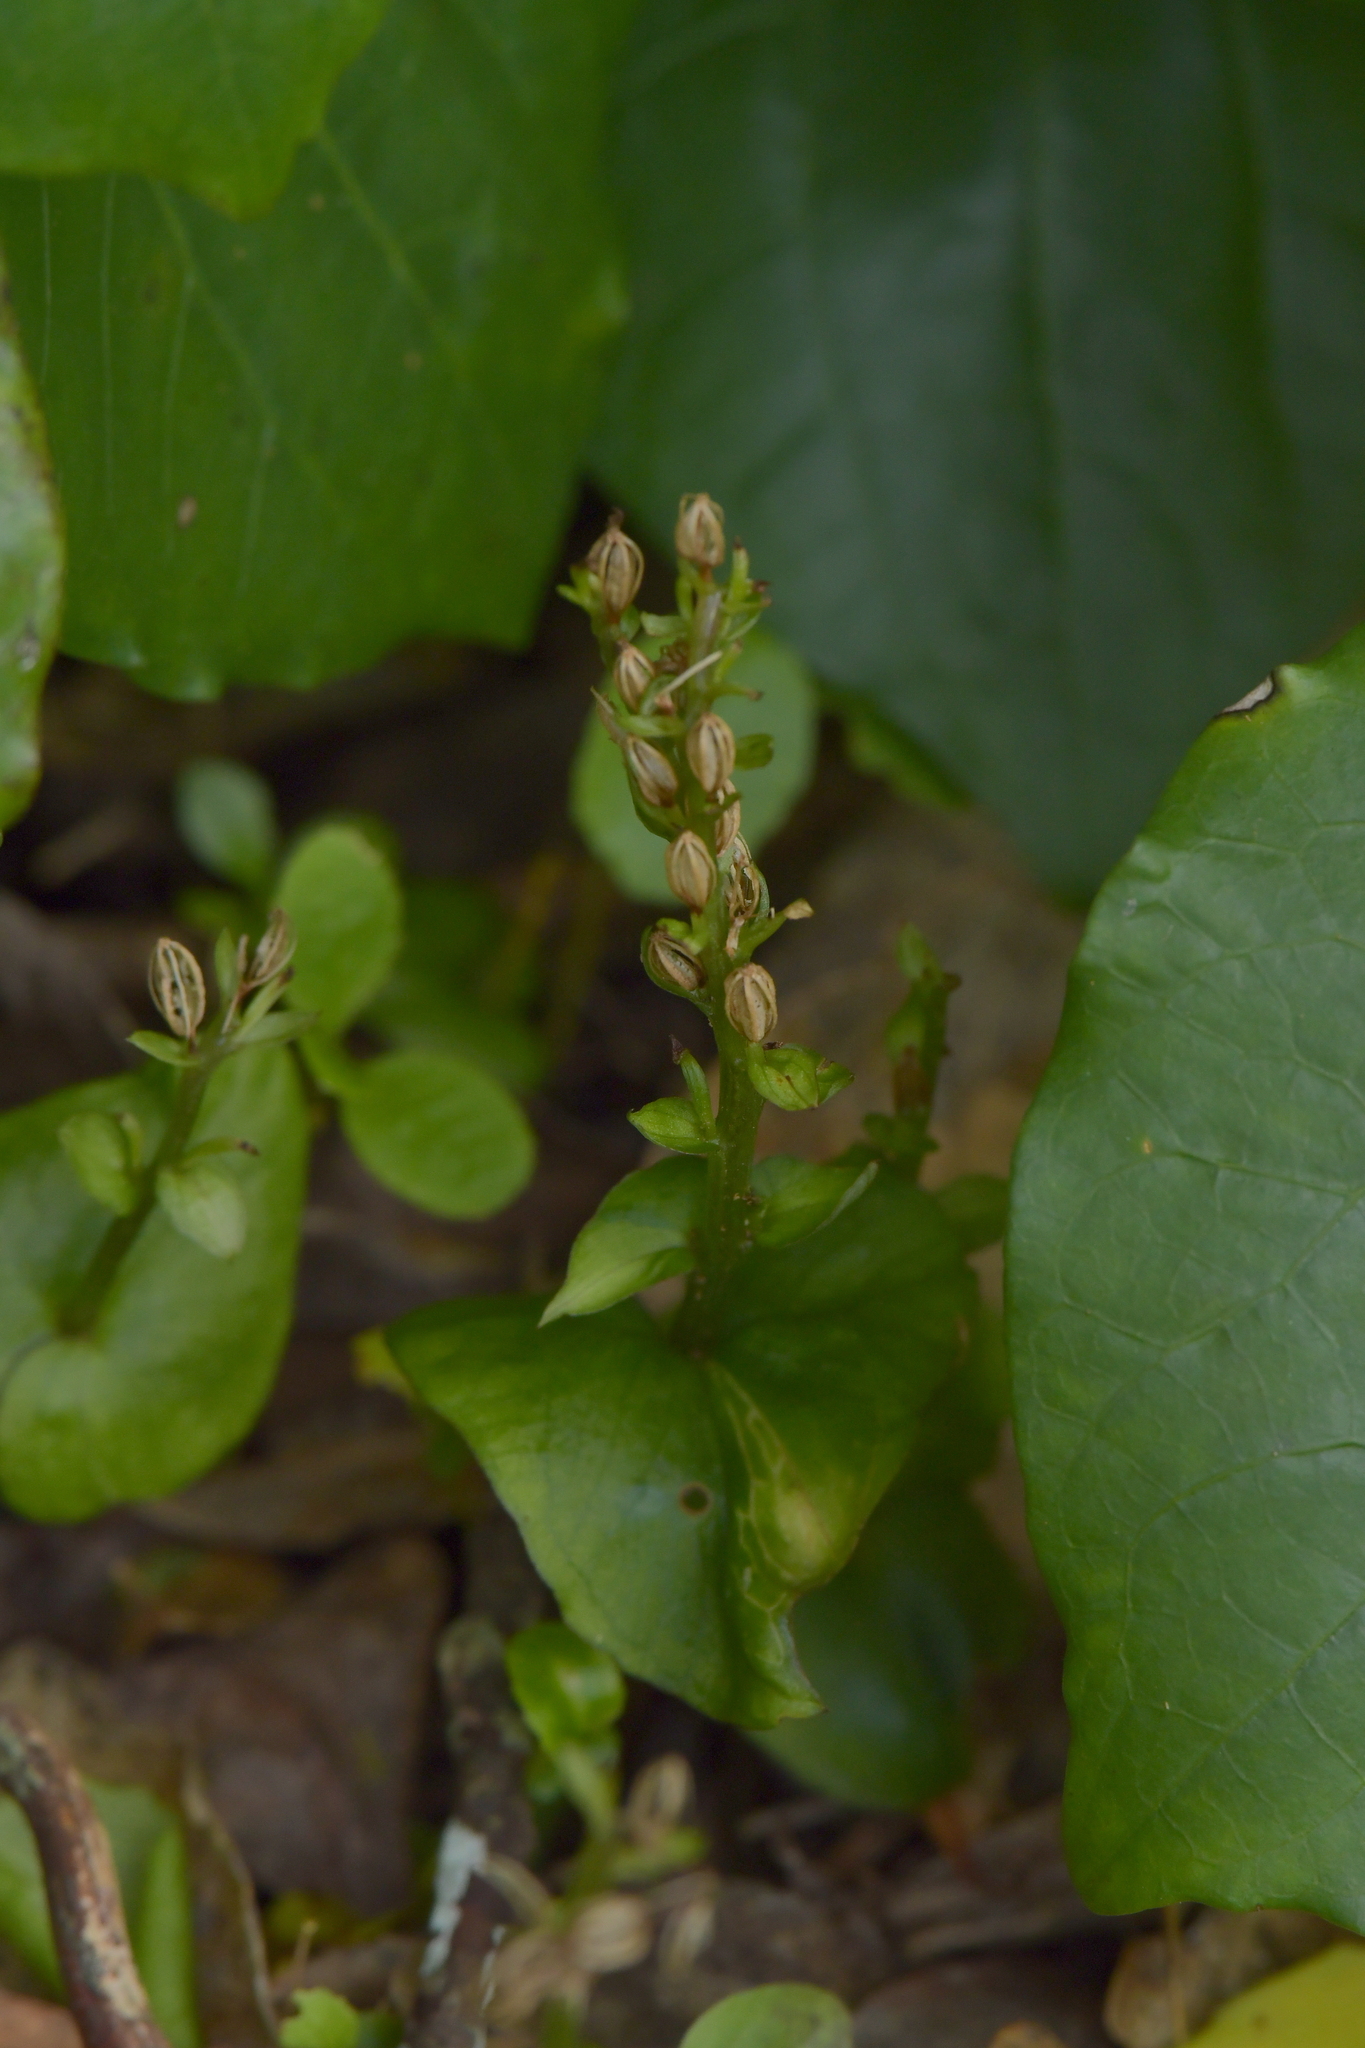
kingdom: Plantae
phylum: Tracheophyta
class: Liliopsida
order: Asparagales
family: Orchidaceae
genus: Acianthus
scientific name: Acianthus sinclairii
